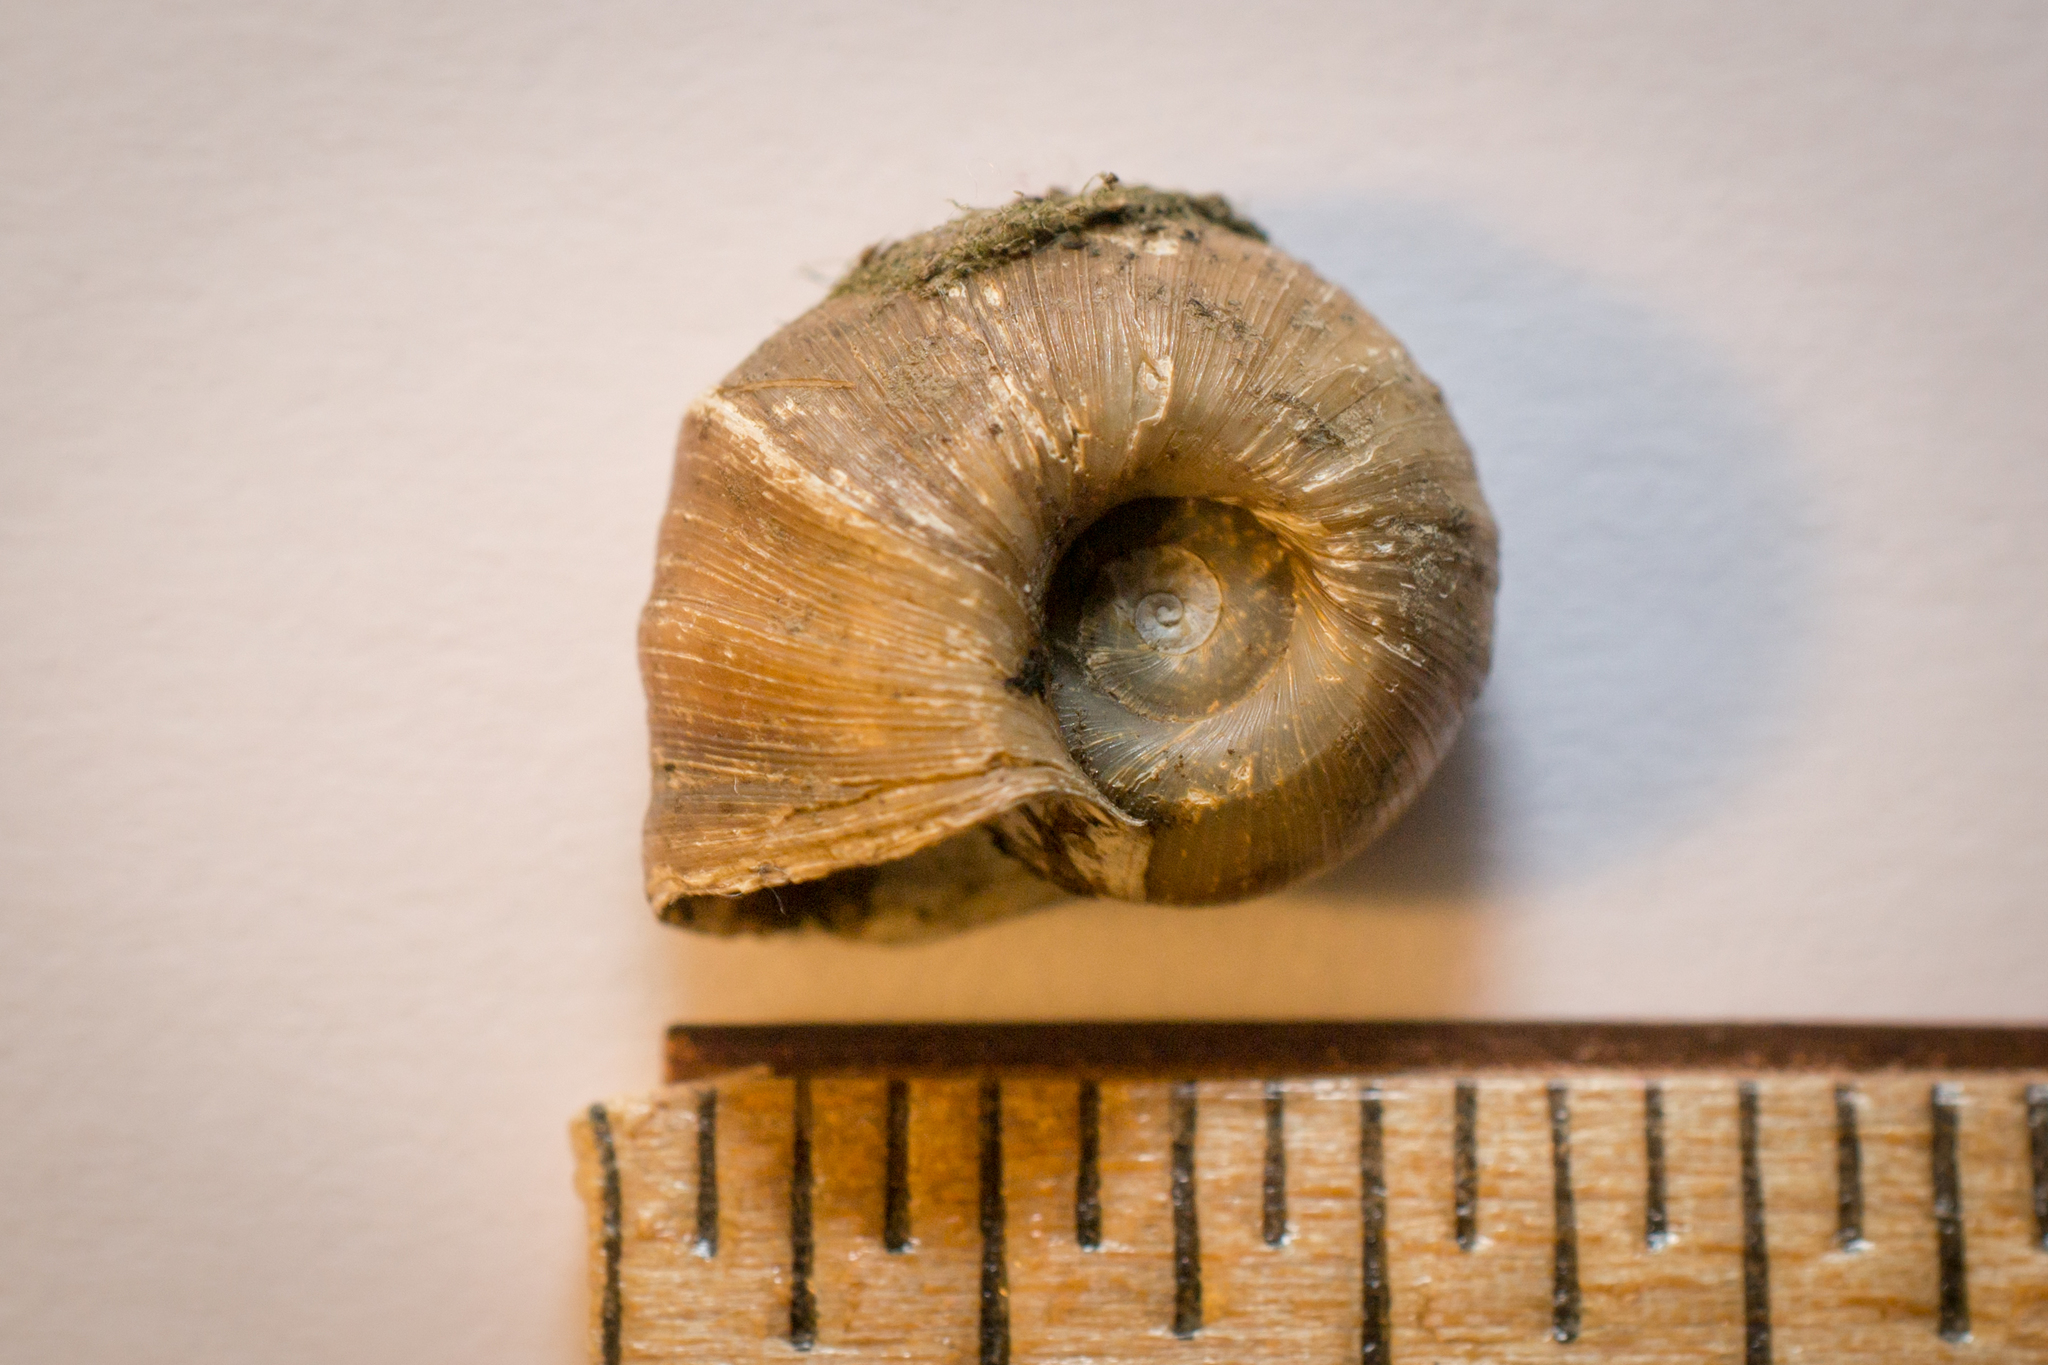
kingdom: Animalia
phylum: Mollusca
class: Gastropoda
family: Planorbidae
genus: Planorbella
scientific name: Planorbella trivolvis
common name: Marsh rams-horn
